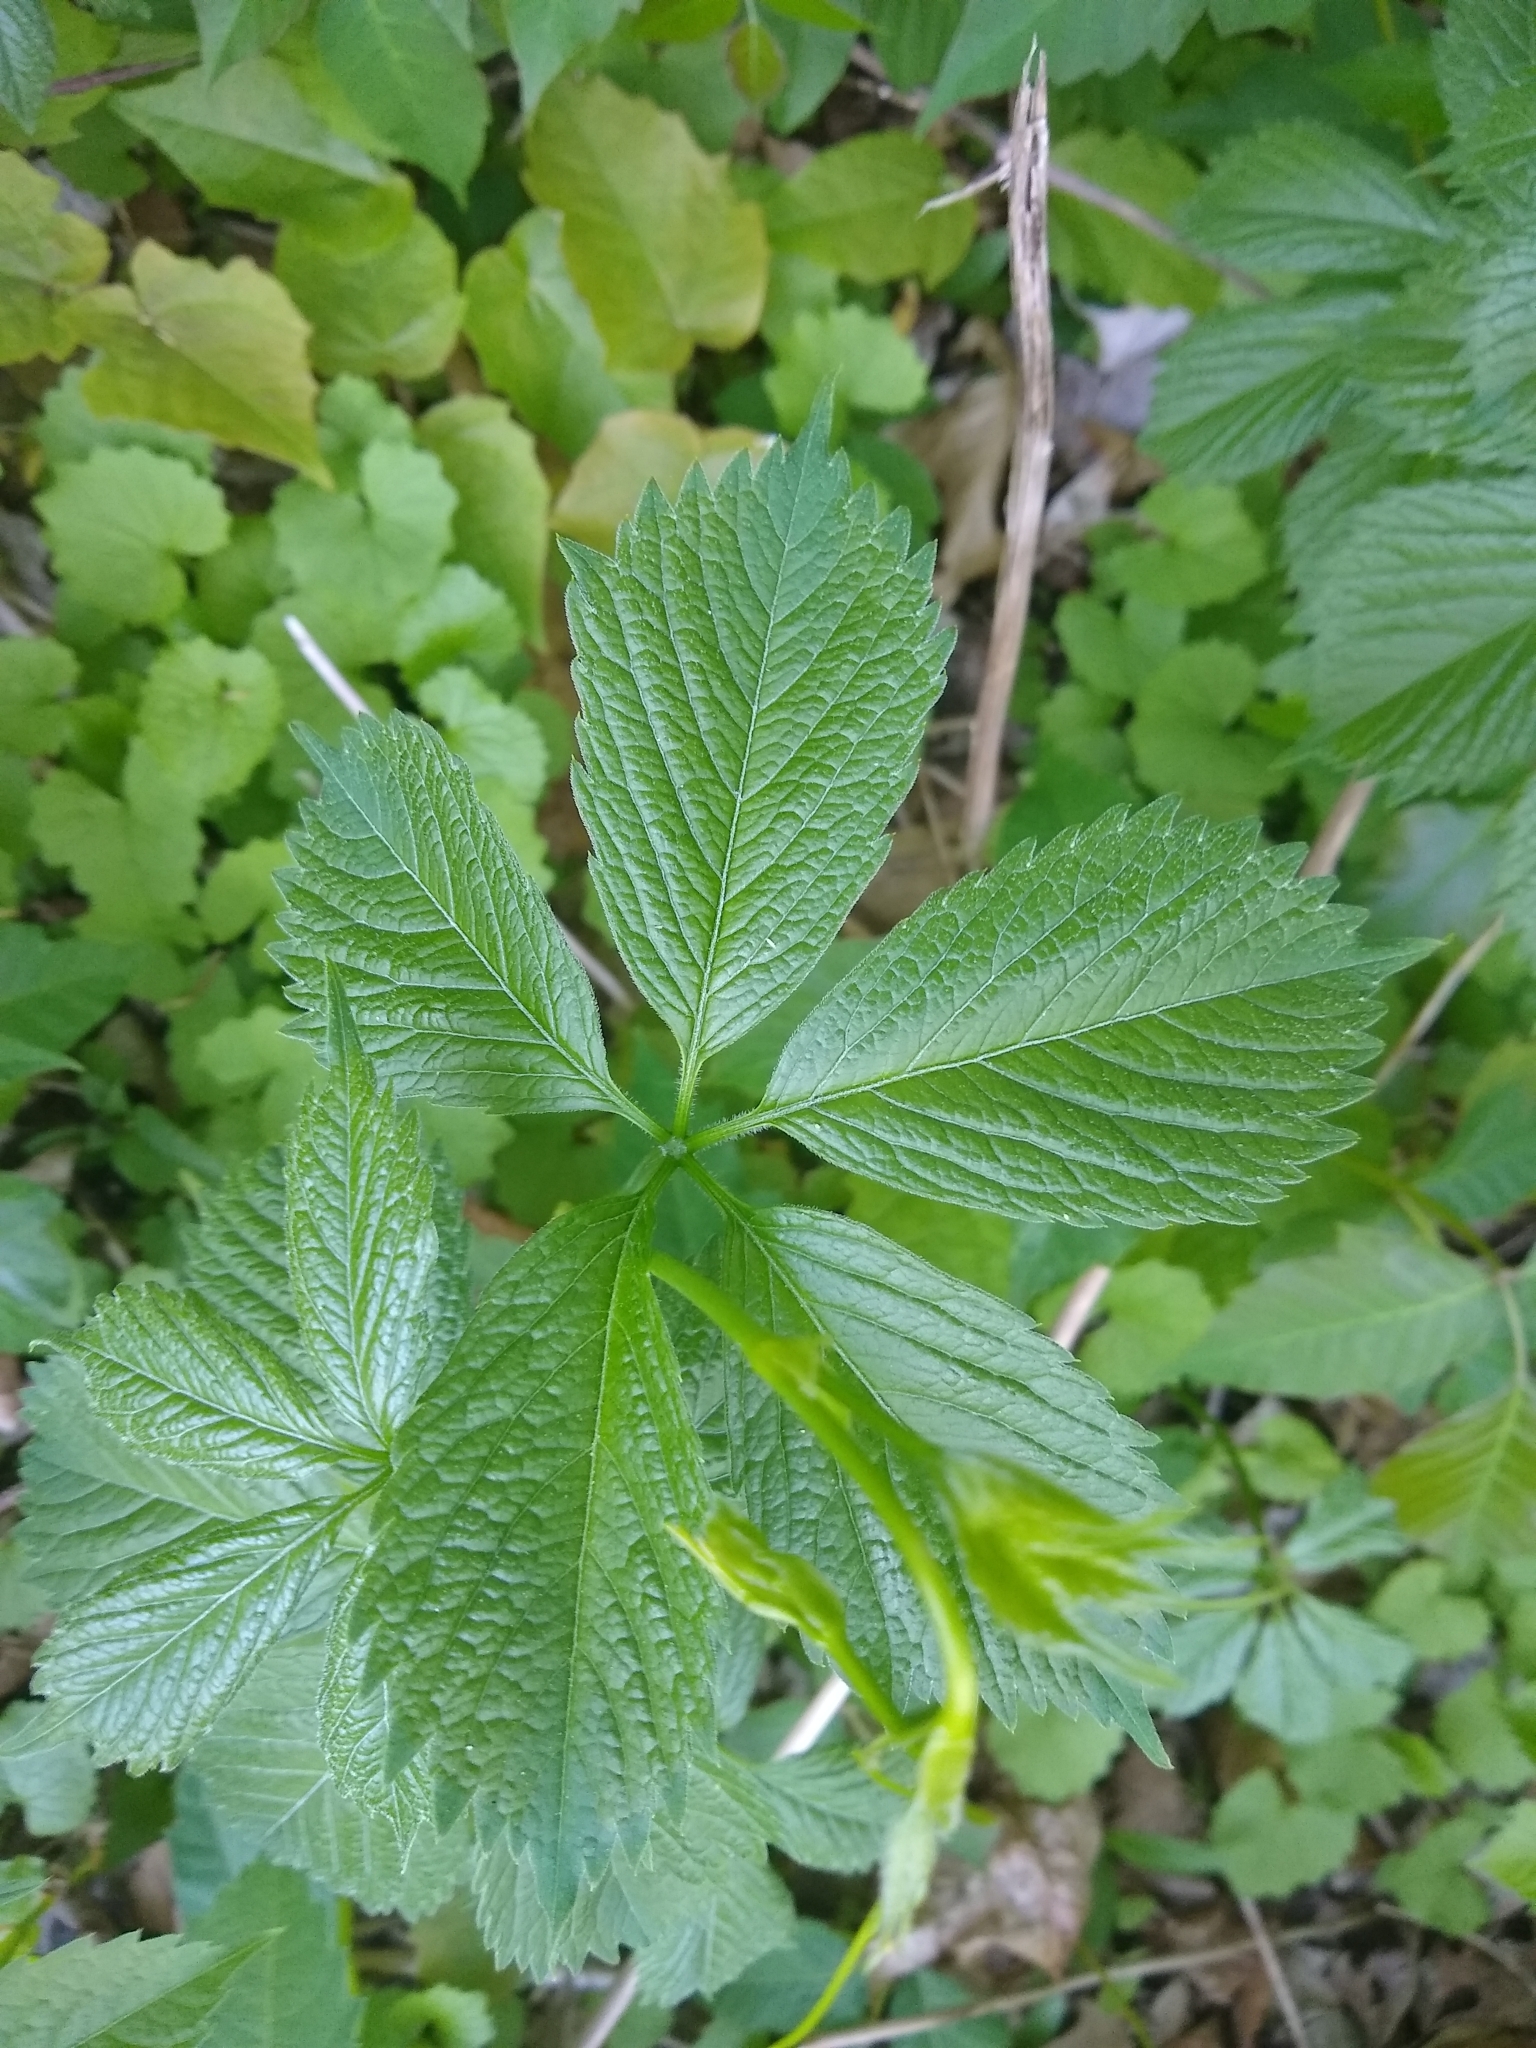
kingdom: Plantae
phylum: Tracheophyta
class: Magnoliopsida
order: Vitales
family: Vitaceae
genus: Parthenocissus
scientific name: Parthenocissus inserta
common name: False virginia-creeper
